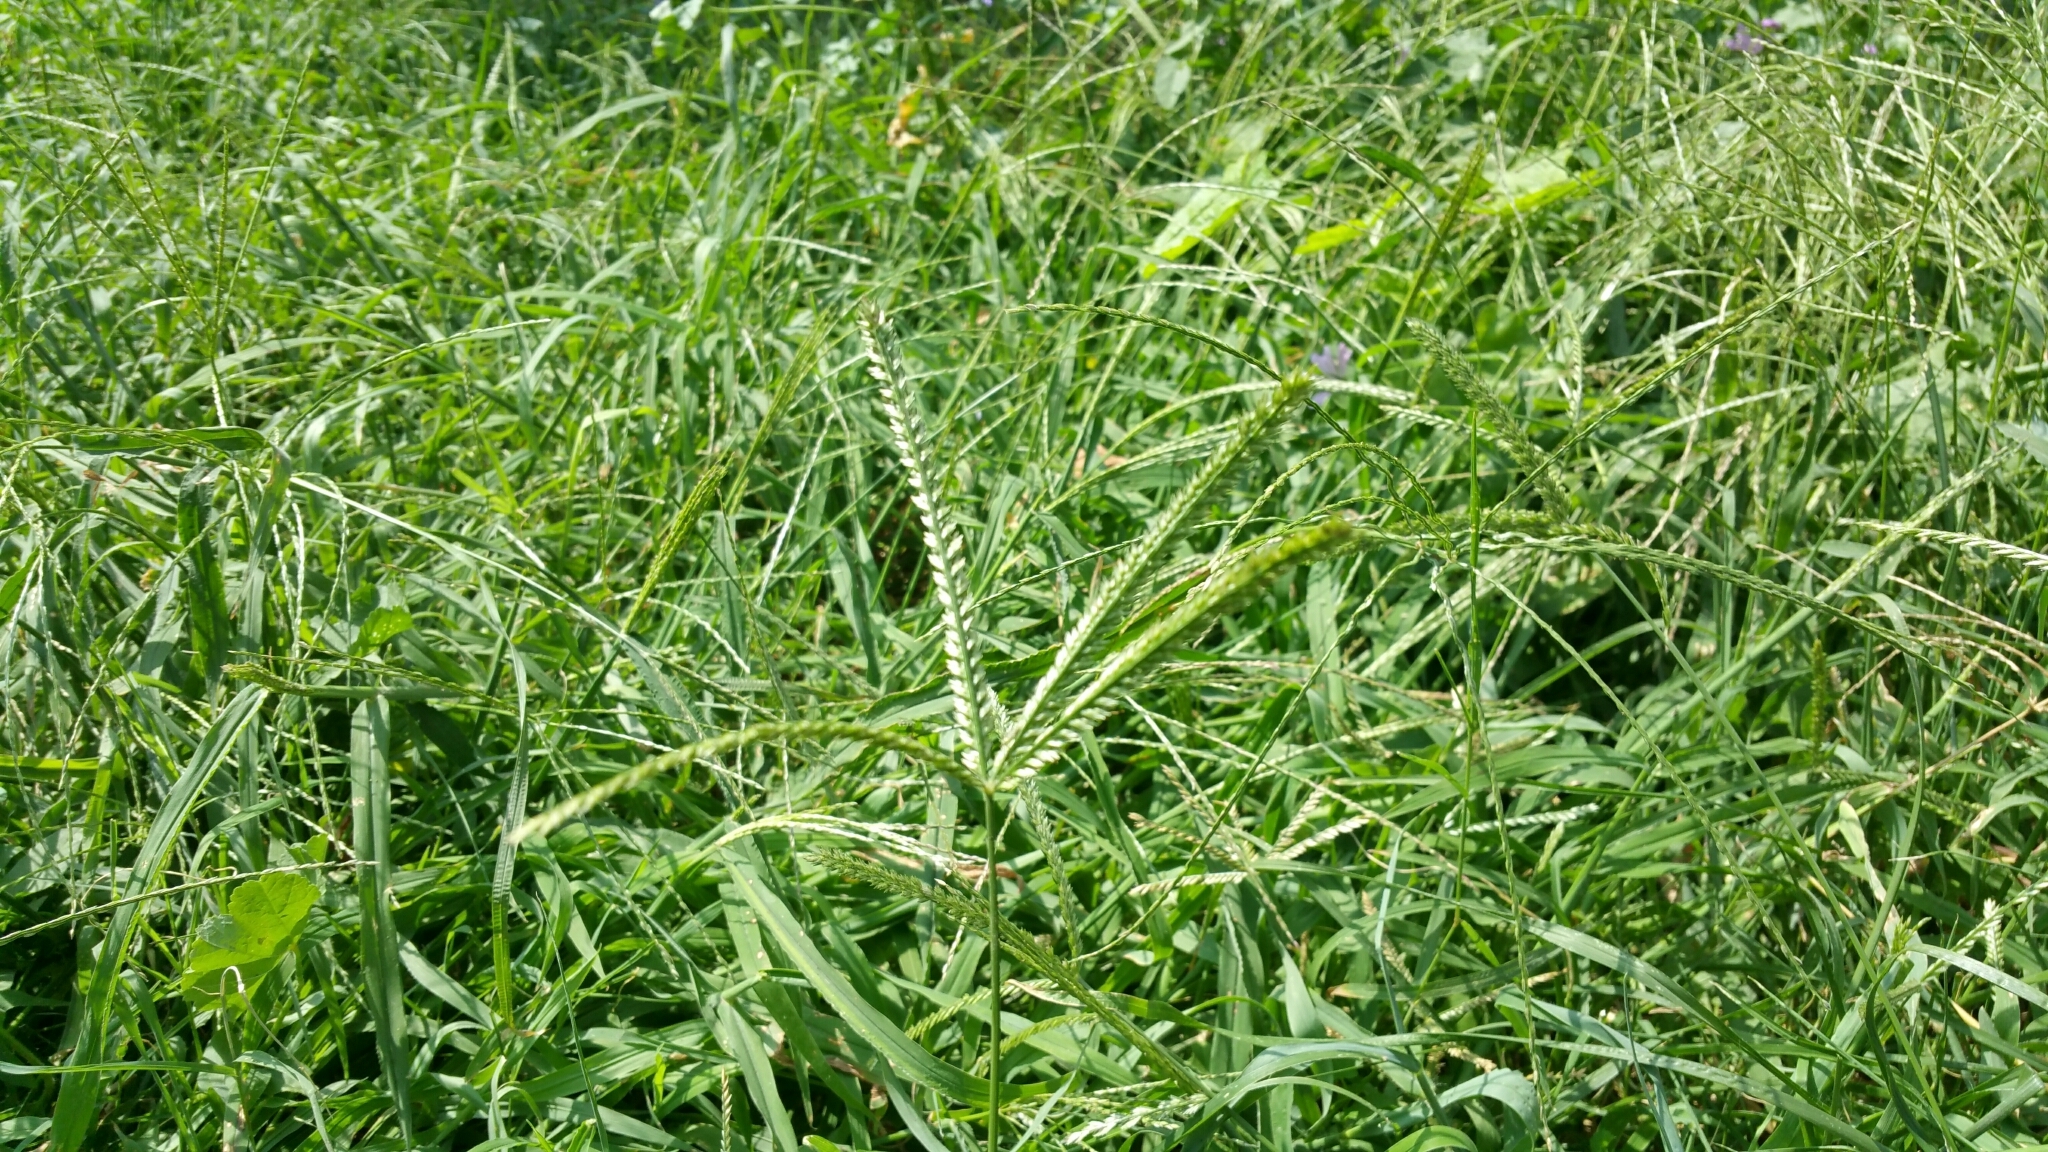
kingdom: Plantae
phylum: Tracheophyta
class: Liliopsida
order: Poales
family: Poaceae
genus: Eleusine
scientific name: Eleusine indica
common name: Yard-grass
